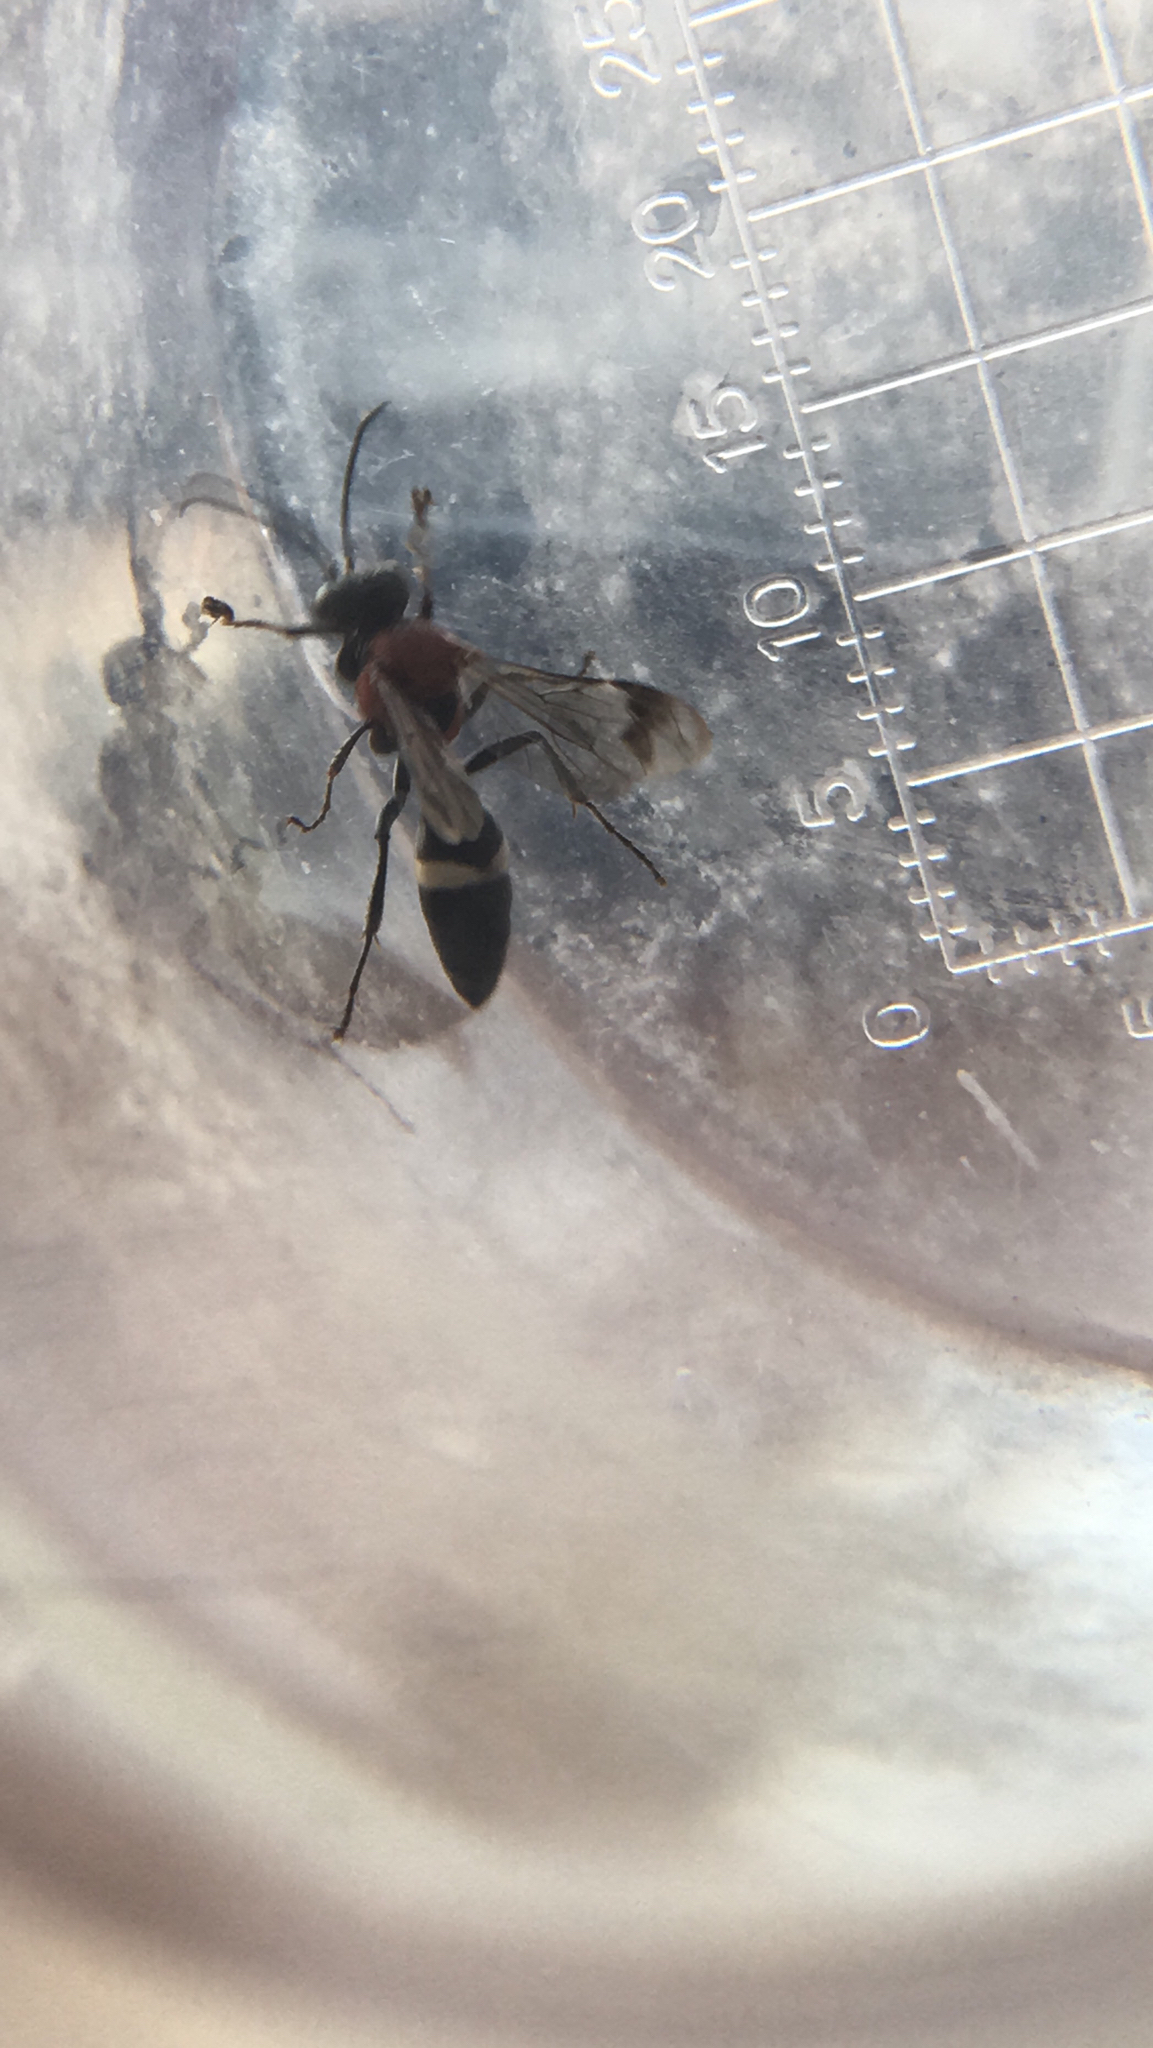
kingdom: Animalia
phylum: Arthropoda
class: Insecta
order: Hymenoptera
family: Crabronidae
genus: Oryttus
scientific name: Oryttus concinnus
